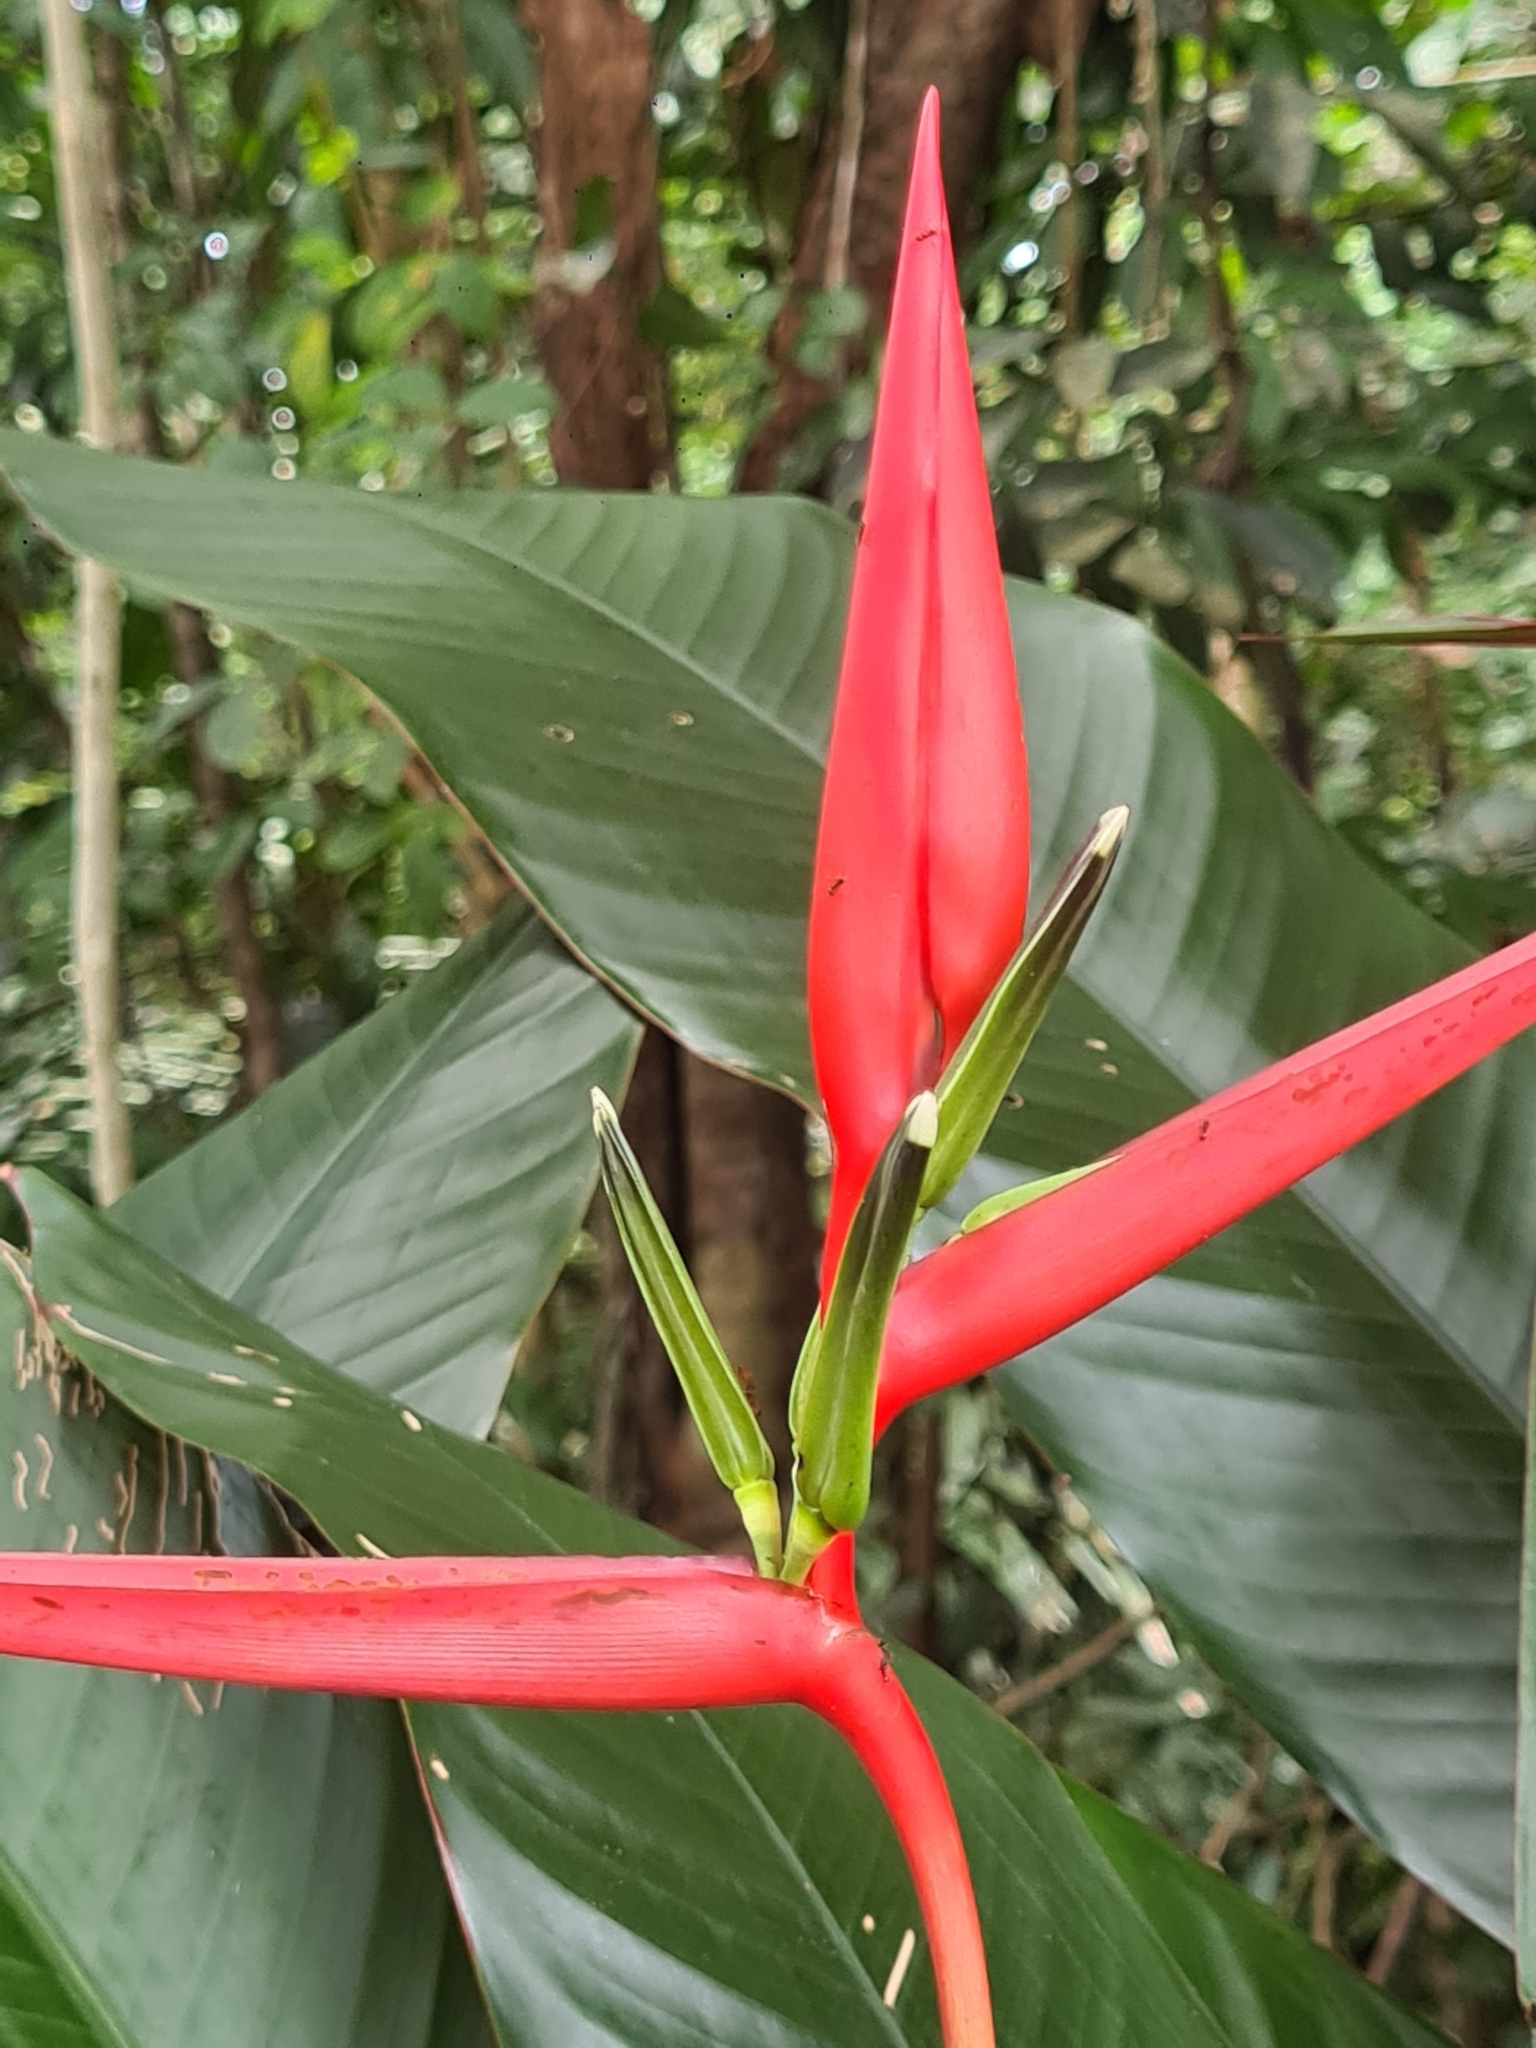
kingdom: Plantae
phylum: Tracheophyta
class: Liliopsida
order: Zingiberales
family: Heliconiaceae
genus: Heliconia
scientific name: Heliconia acuminata
